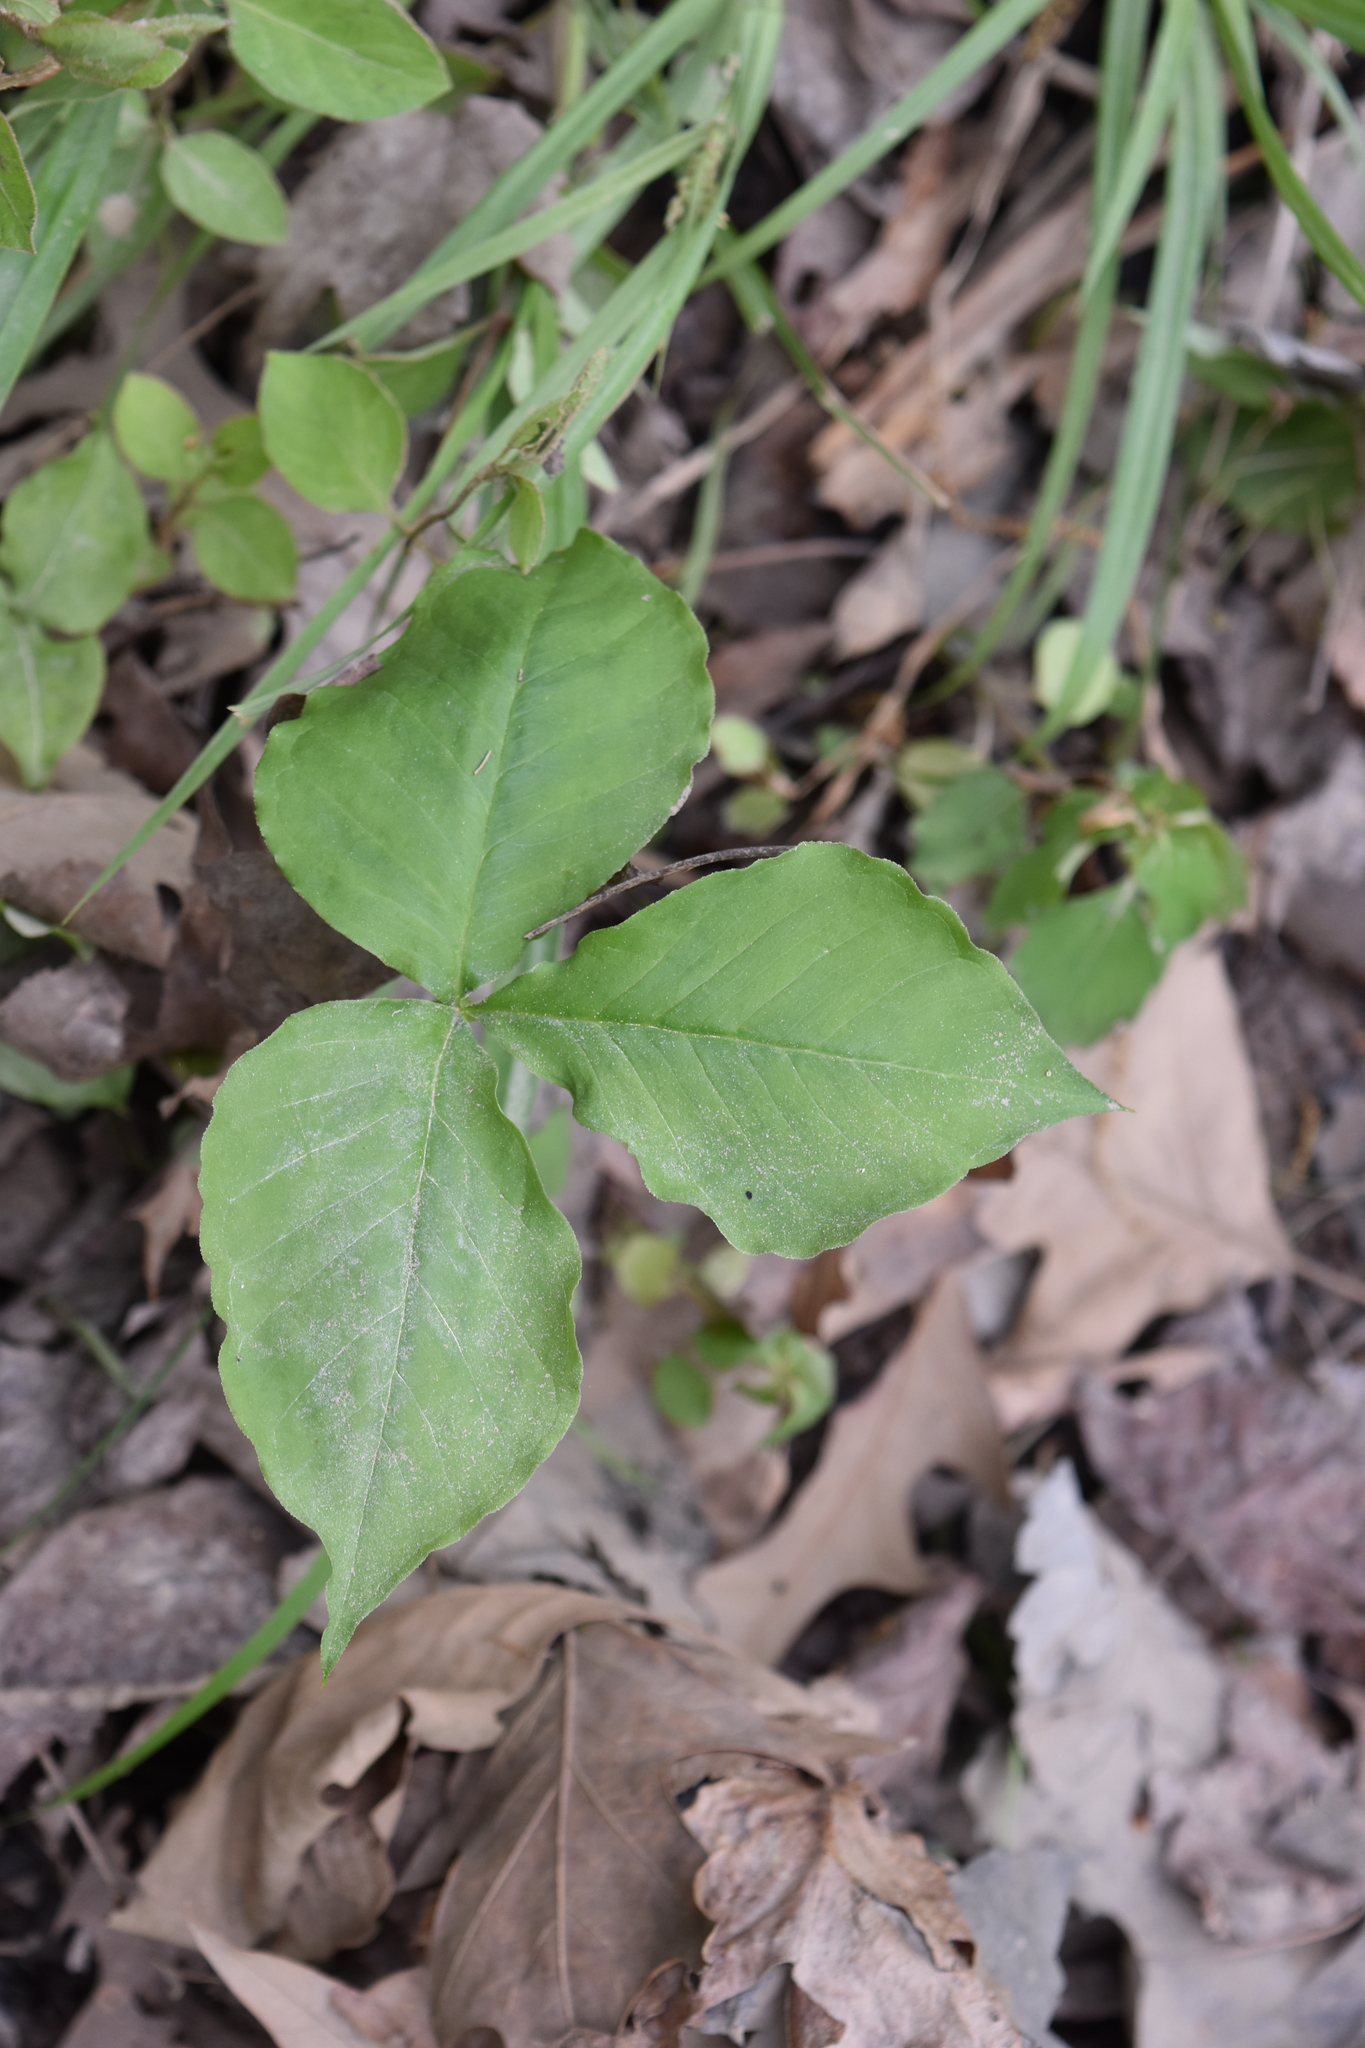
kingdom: Plantae
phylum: Tracheophyta
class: Liliopsida
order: Alismatales
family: Araceae
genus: Arisaema
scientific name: Arisaema triphyllum
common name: Jack-in-the-pulpit
